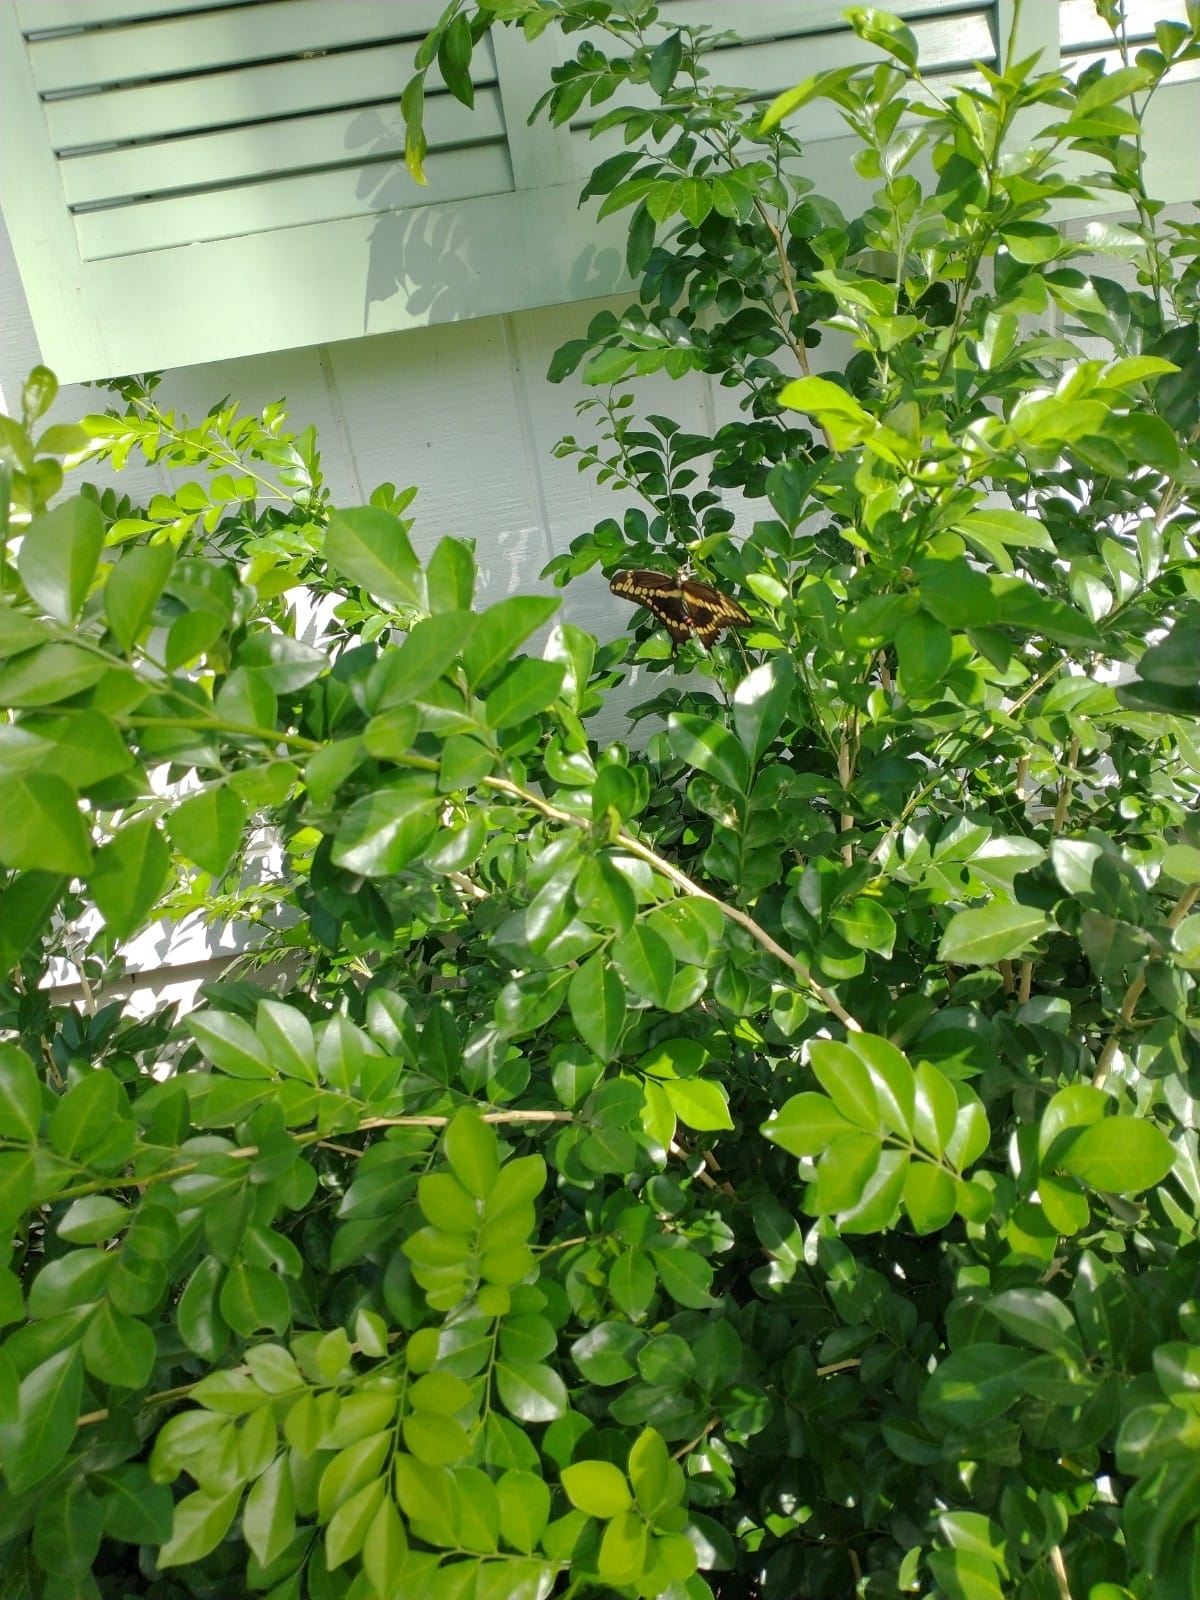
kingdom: Animalia
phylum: Arthropoda
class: Insecta
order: Lepidoptera
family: Papilionidae
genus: Papilio
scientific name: Papilio cresphontes
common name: Giant swallowtail
